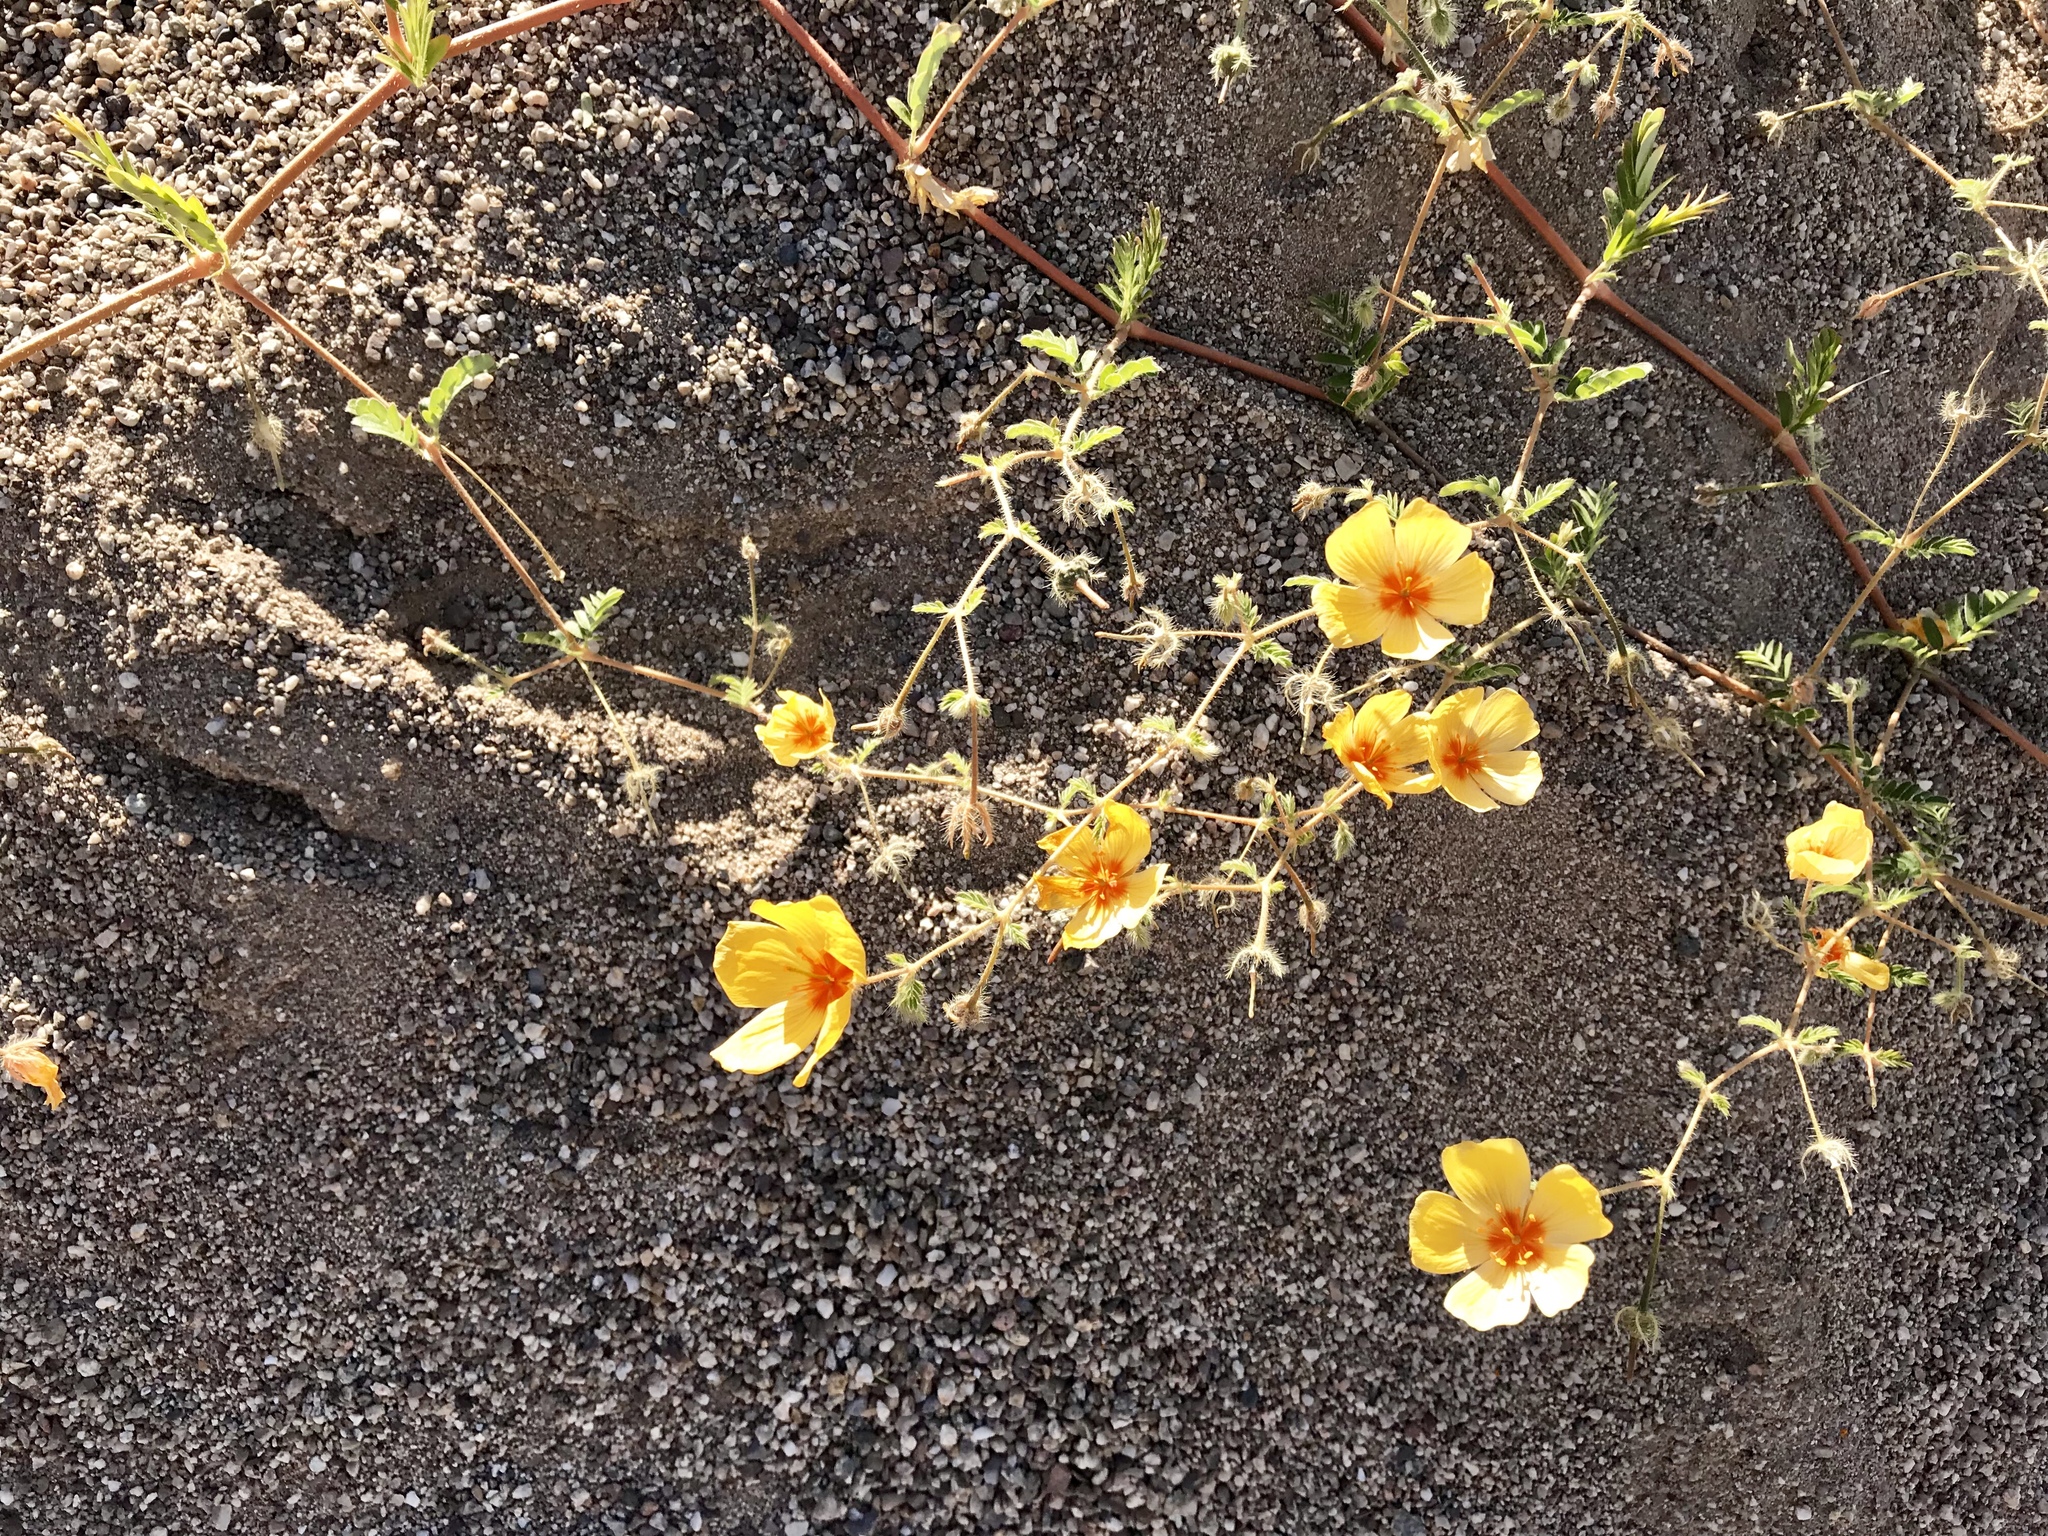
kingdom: Plantae
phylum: Tracheophyta
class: Magnoliopsida
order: Zygophyllales
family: Zygophyllaceae
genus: Kallstroemia
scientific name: Kallstroemia grandiflora
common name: Arizona-poppy
